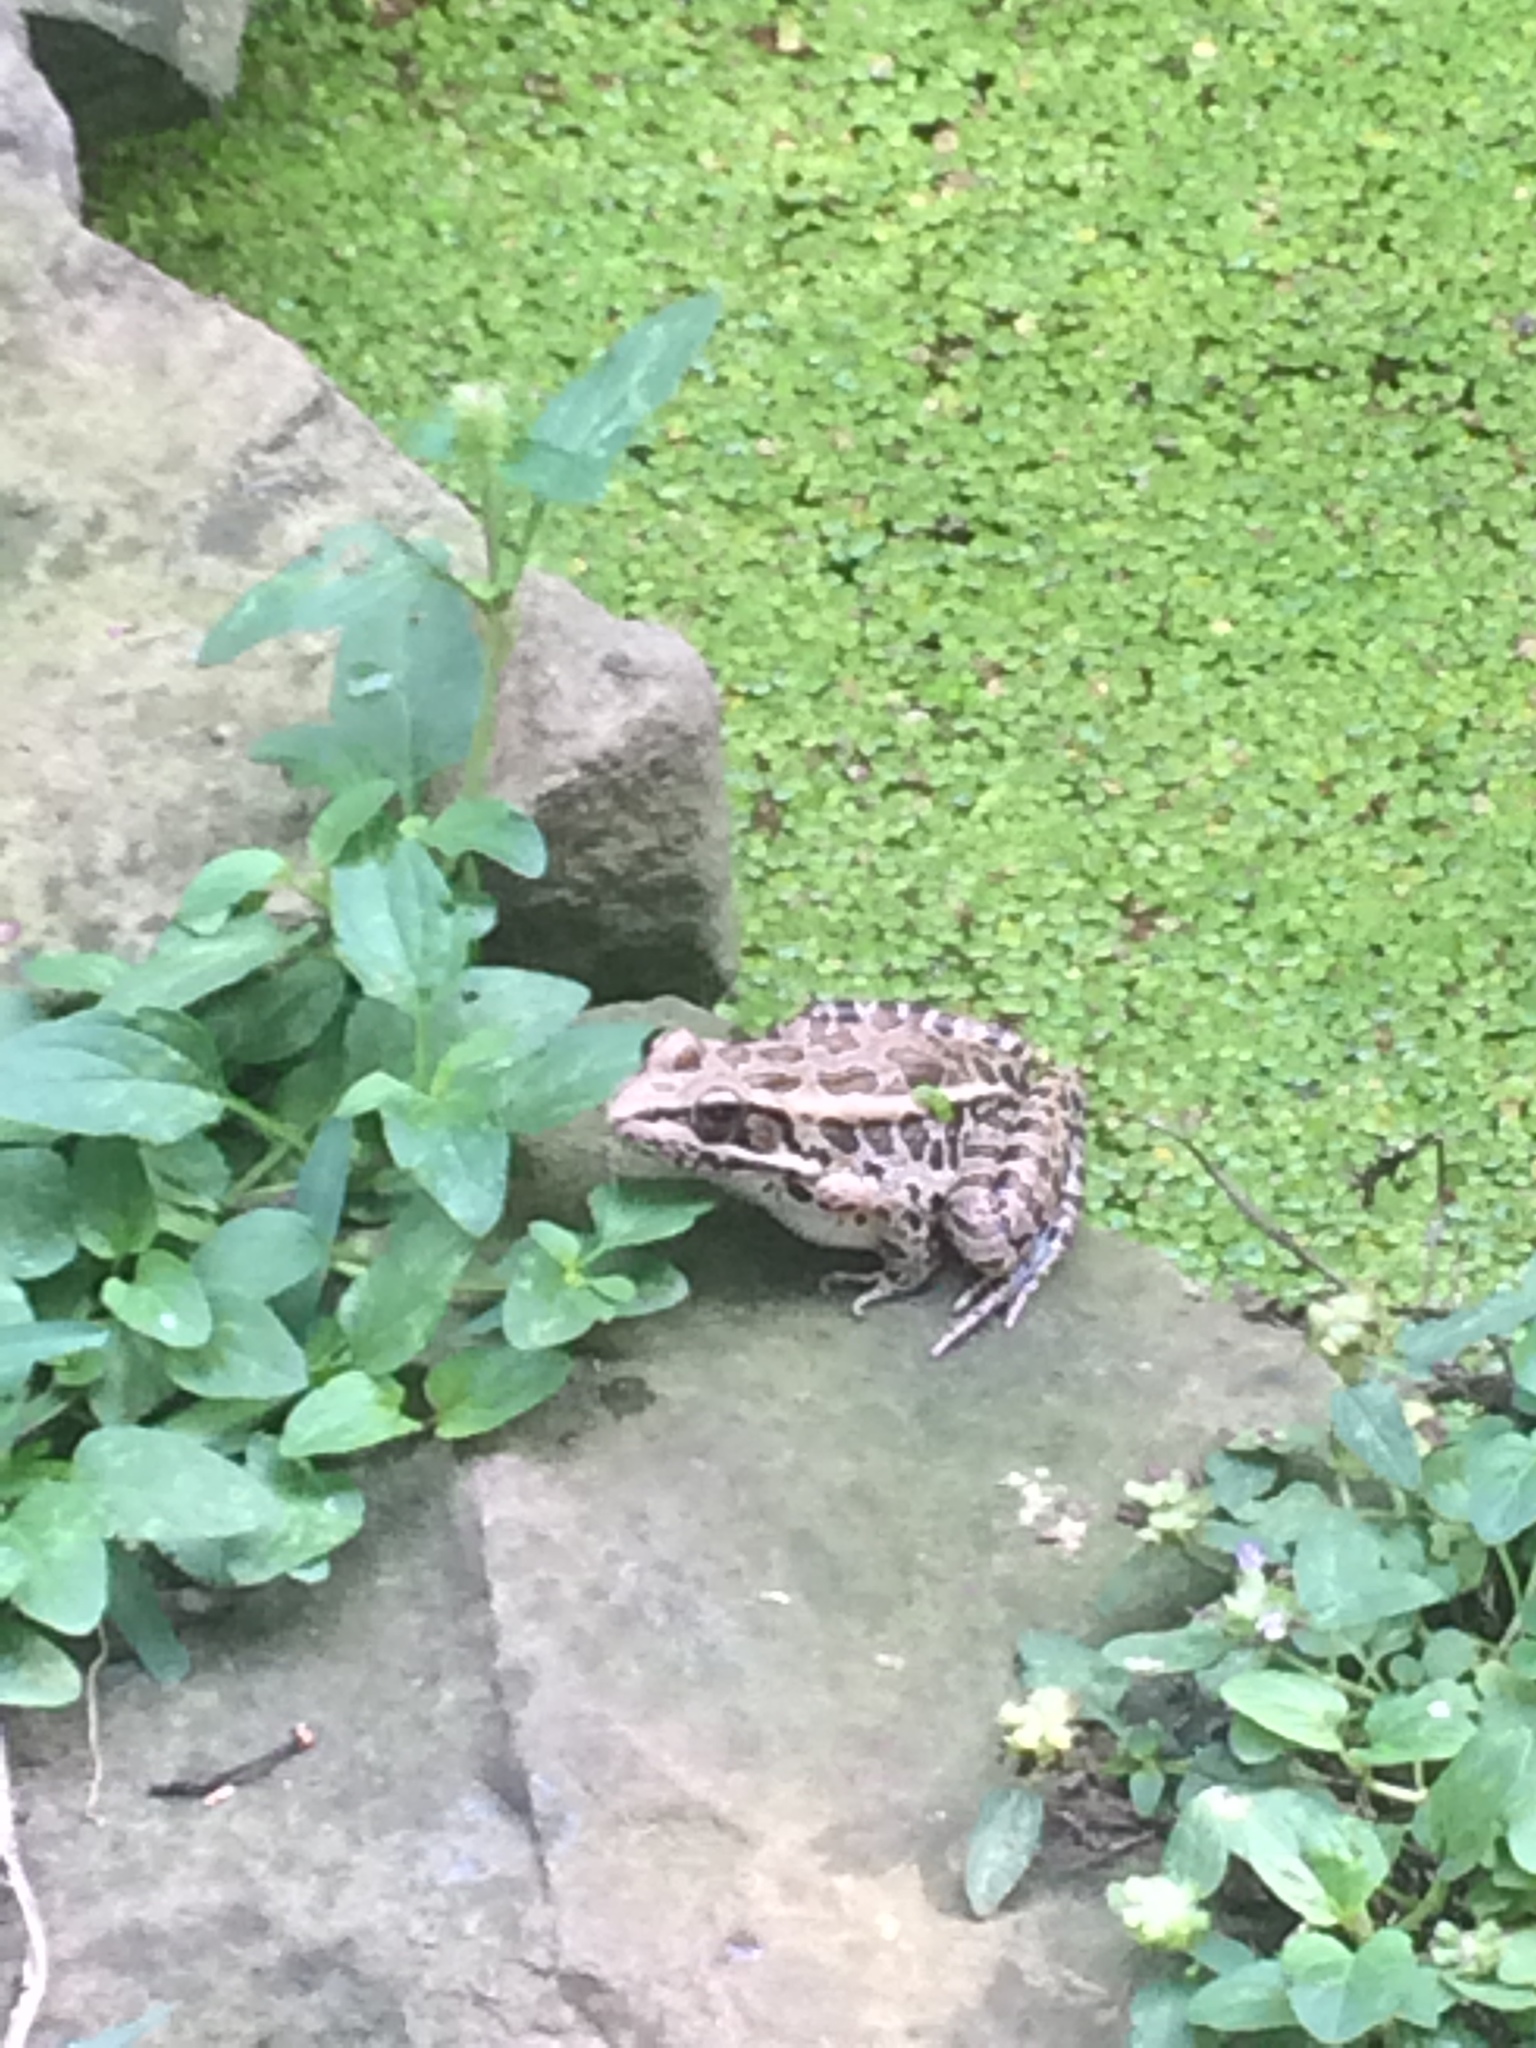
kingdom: Animalia
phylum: Chordata
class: Amphibia
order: Anura
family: Ranidae
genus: Lithobates
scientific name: Lithobates palustris
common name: Pickerel frog
